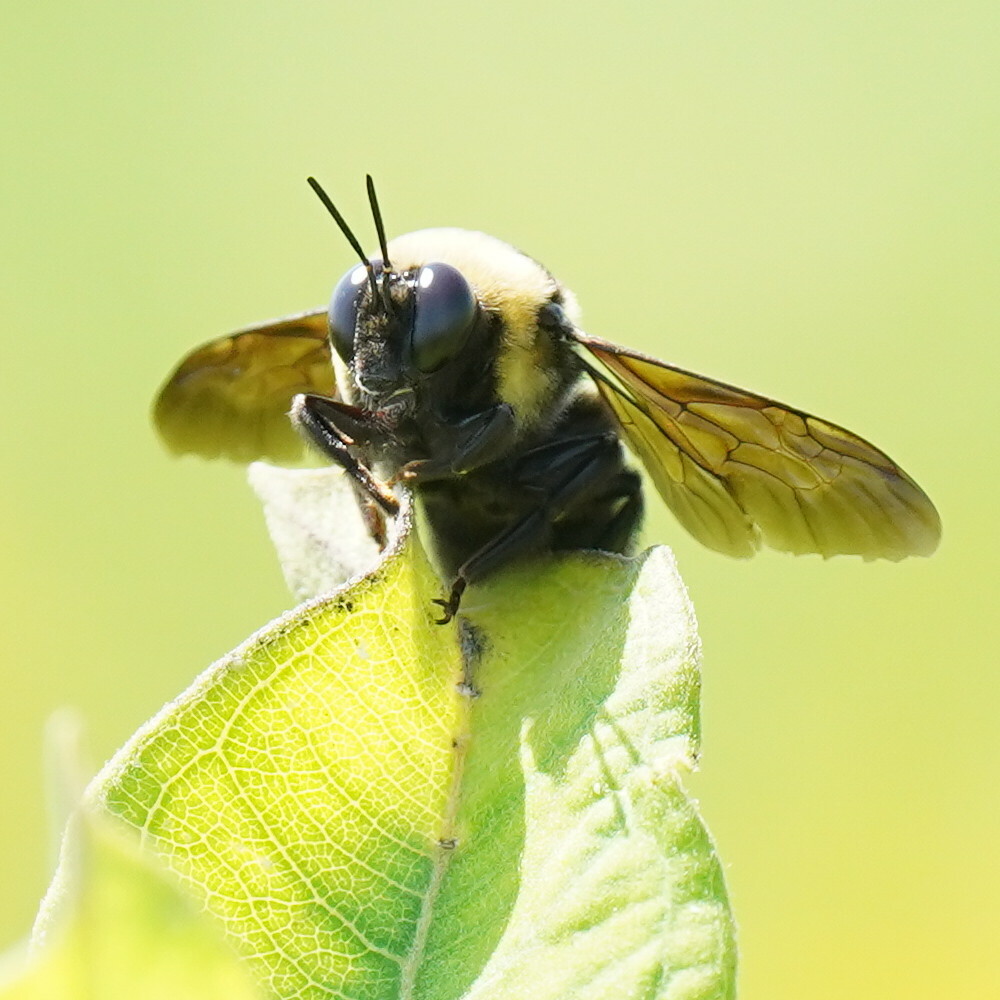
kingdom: Animalia
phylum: Arthropoda
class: Insecta
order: Hymenoptera
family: Apidae
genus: Bombus
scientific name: Bombus auricomus
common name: Black and gold bumble bee
